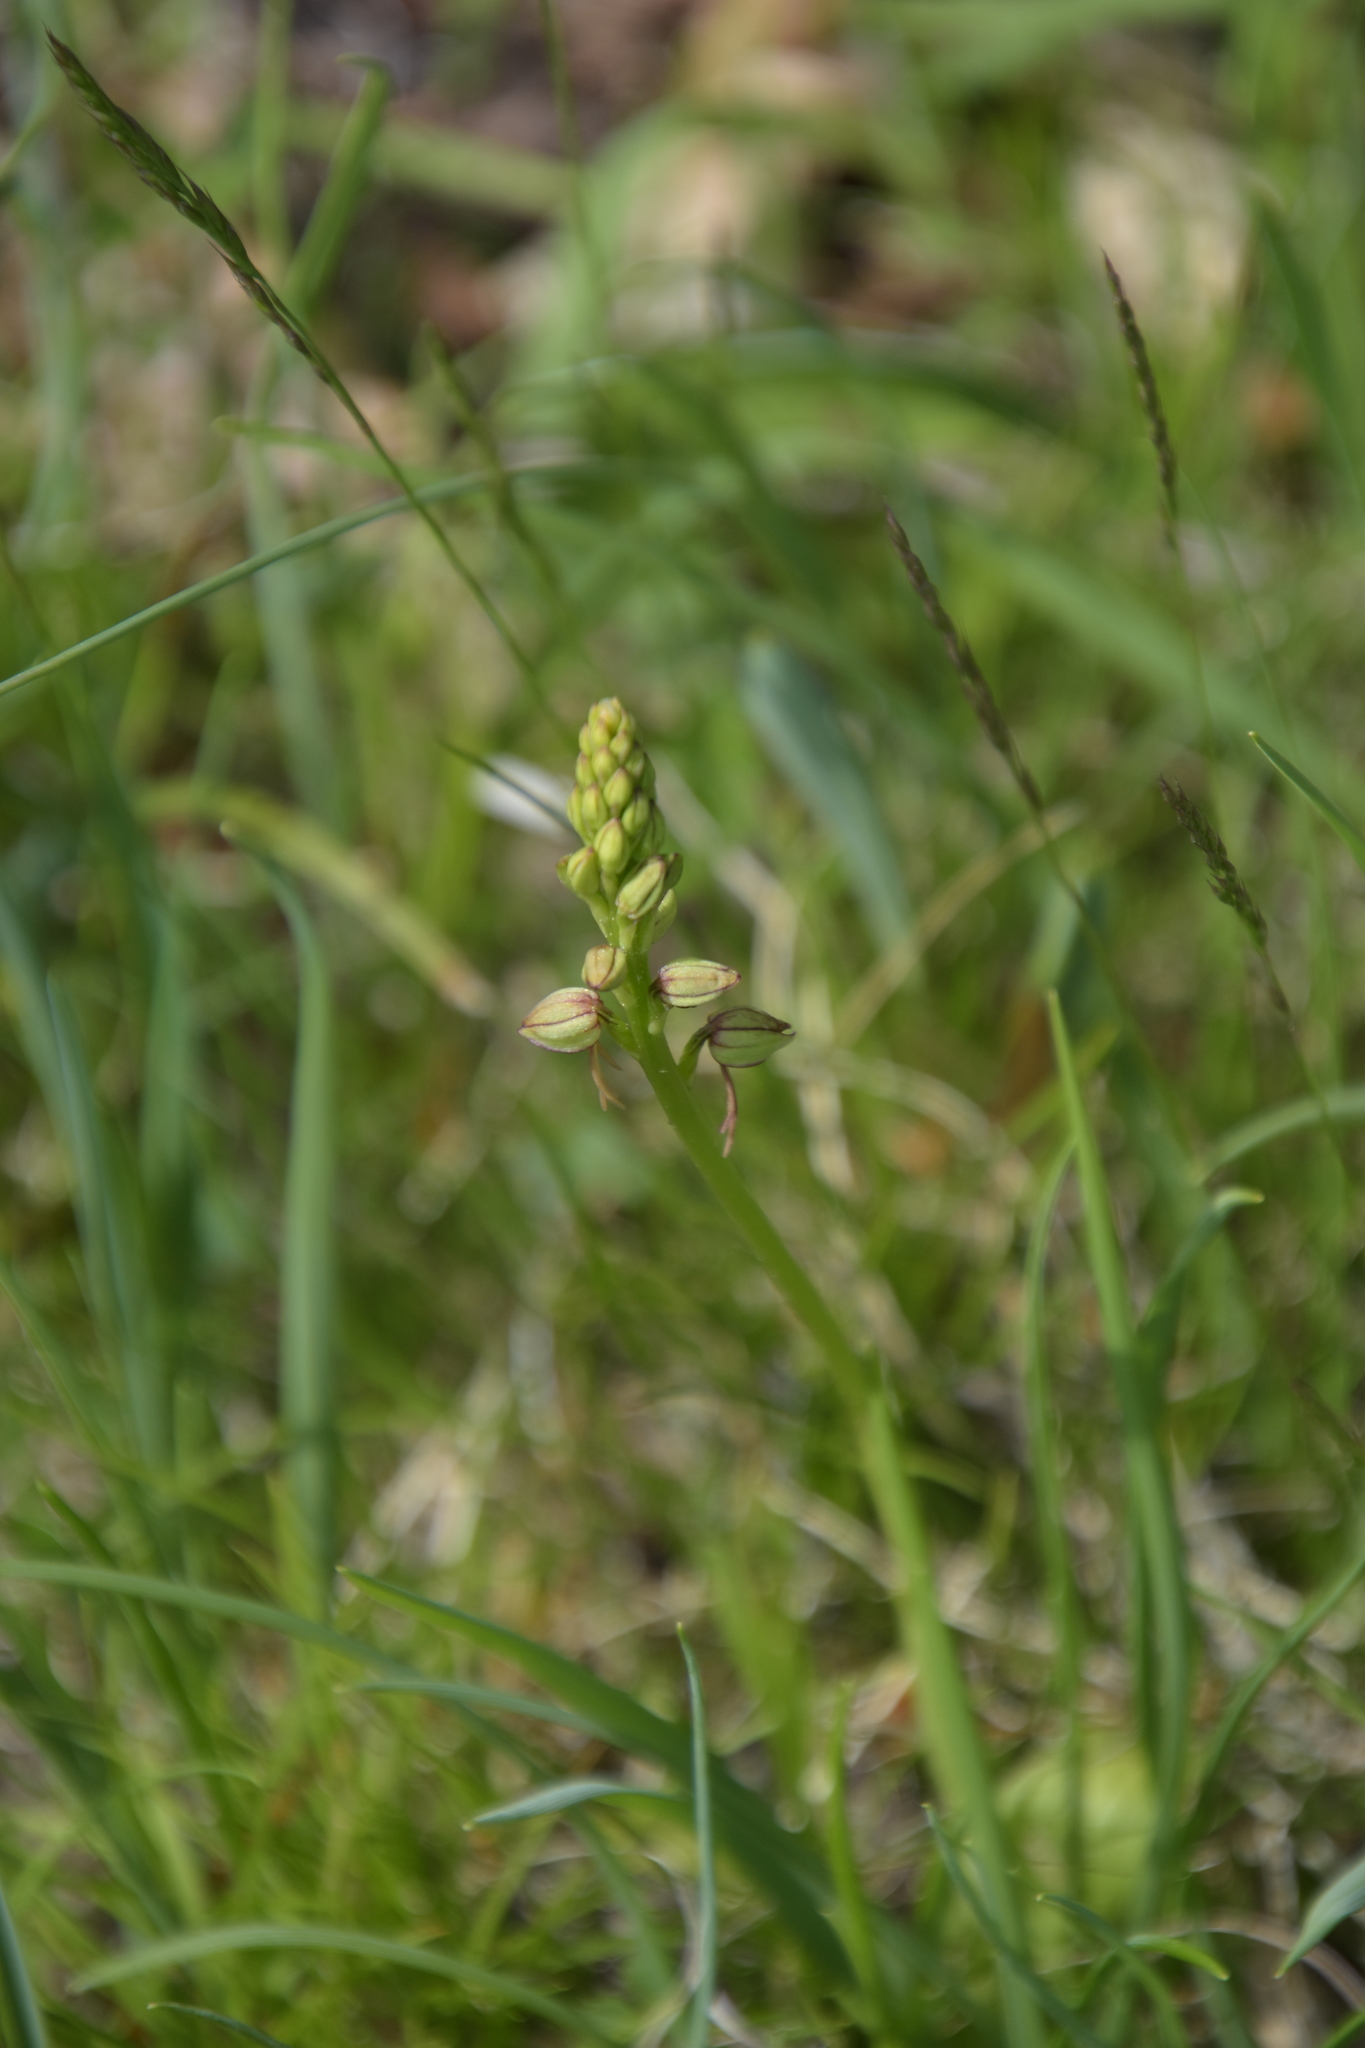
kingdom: Plantae
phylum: Tracheophyta
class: Liliopsida
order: Asparagales
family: Orchidaceae
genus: Orchis
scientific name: Orchis anthropophora
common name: Man orchid
